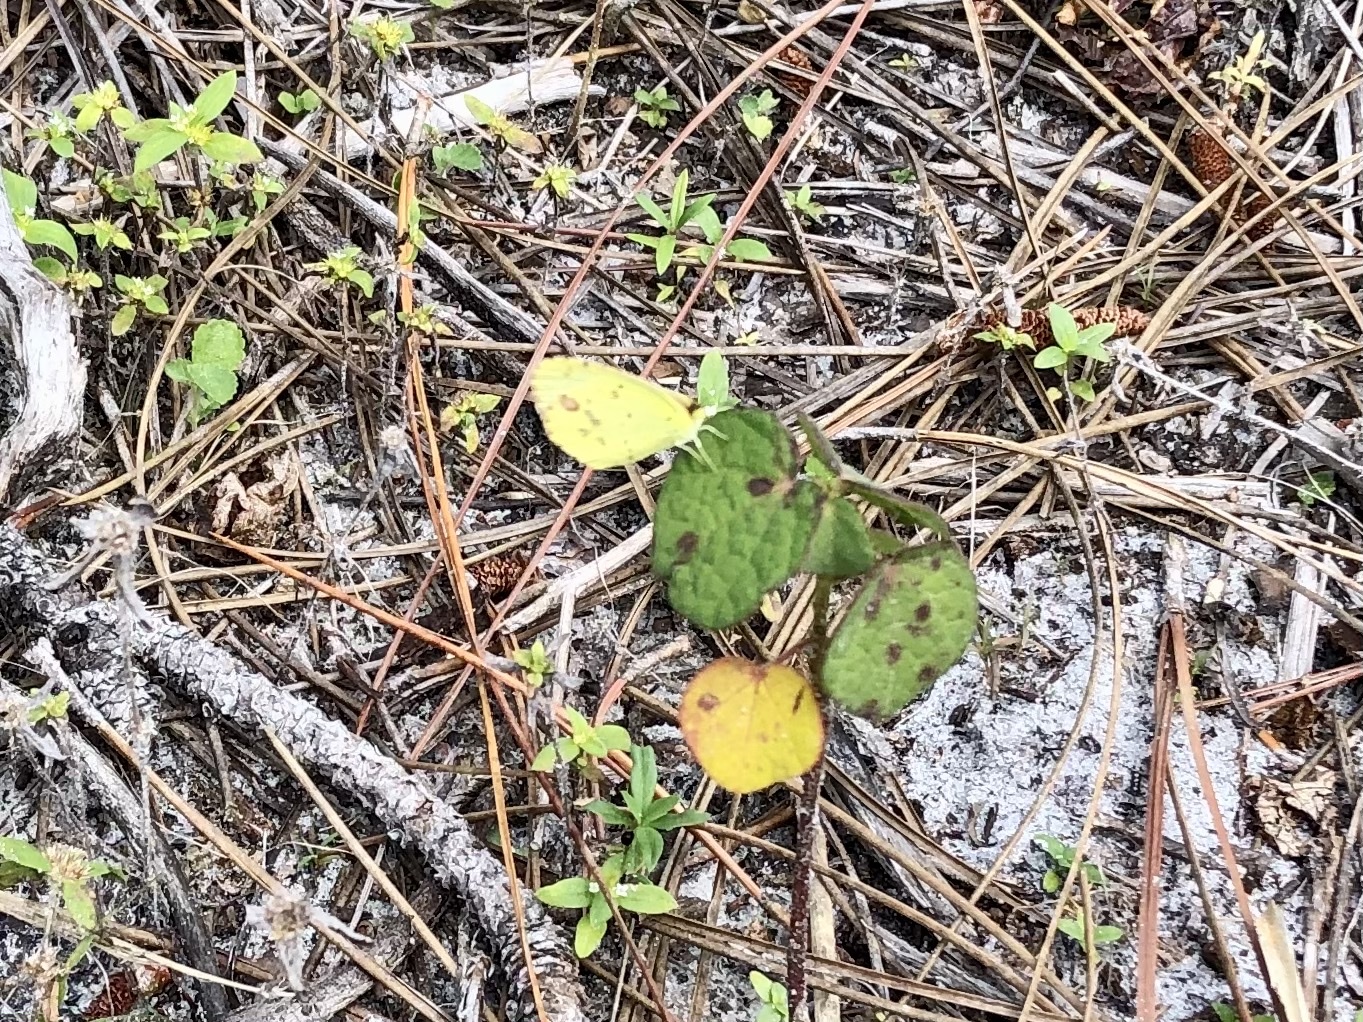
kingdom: Animalia
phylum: Arthropoda
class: Insecta
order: Lepidoptera
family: Pieridae
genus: Pyrisitia
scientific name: Pyrisitia lisa
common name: Little yellow
